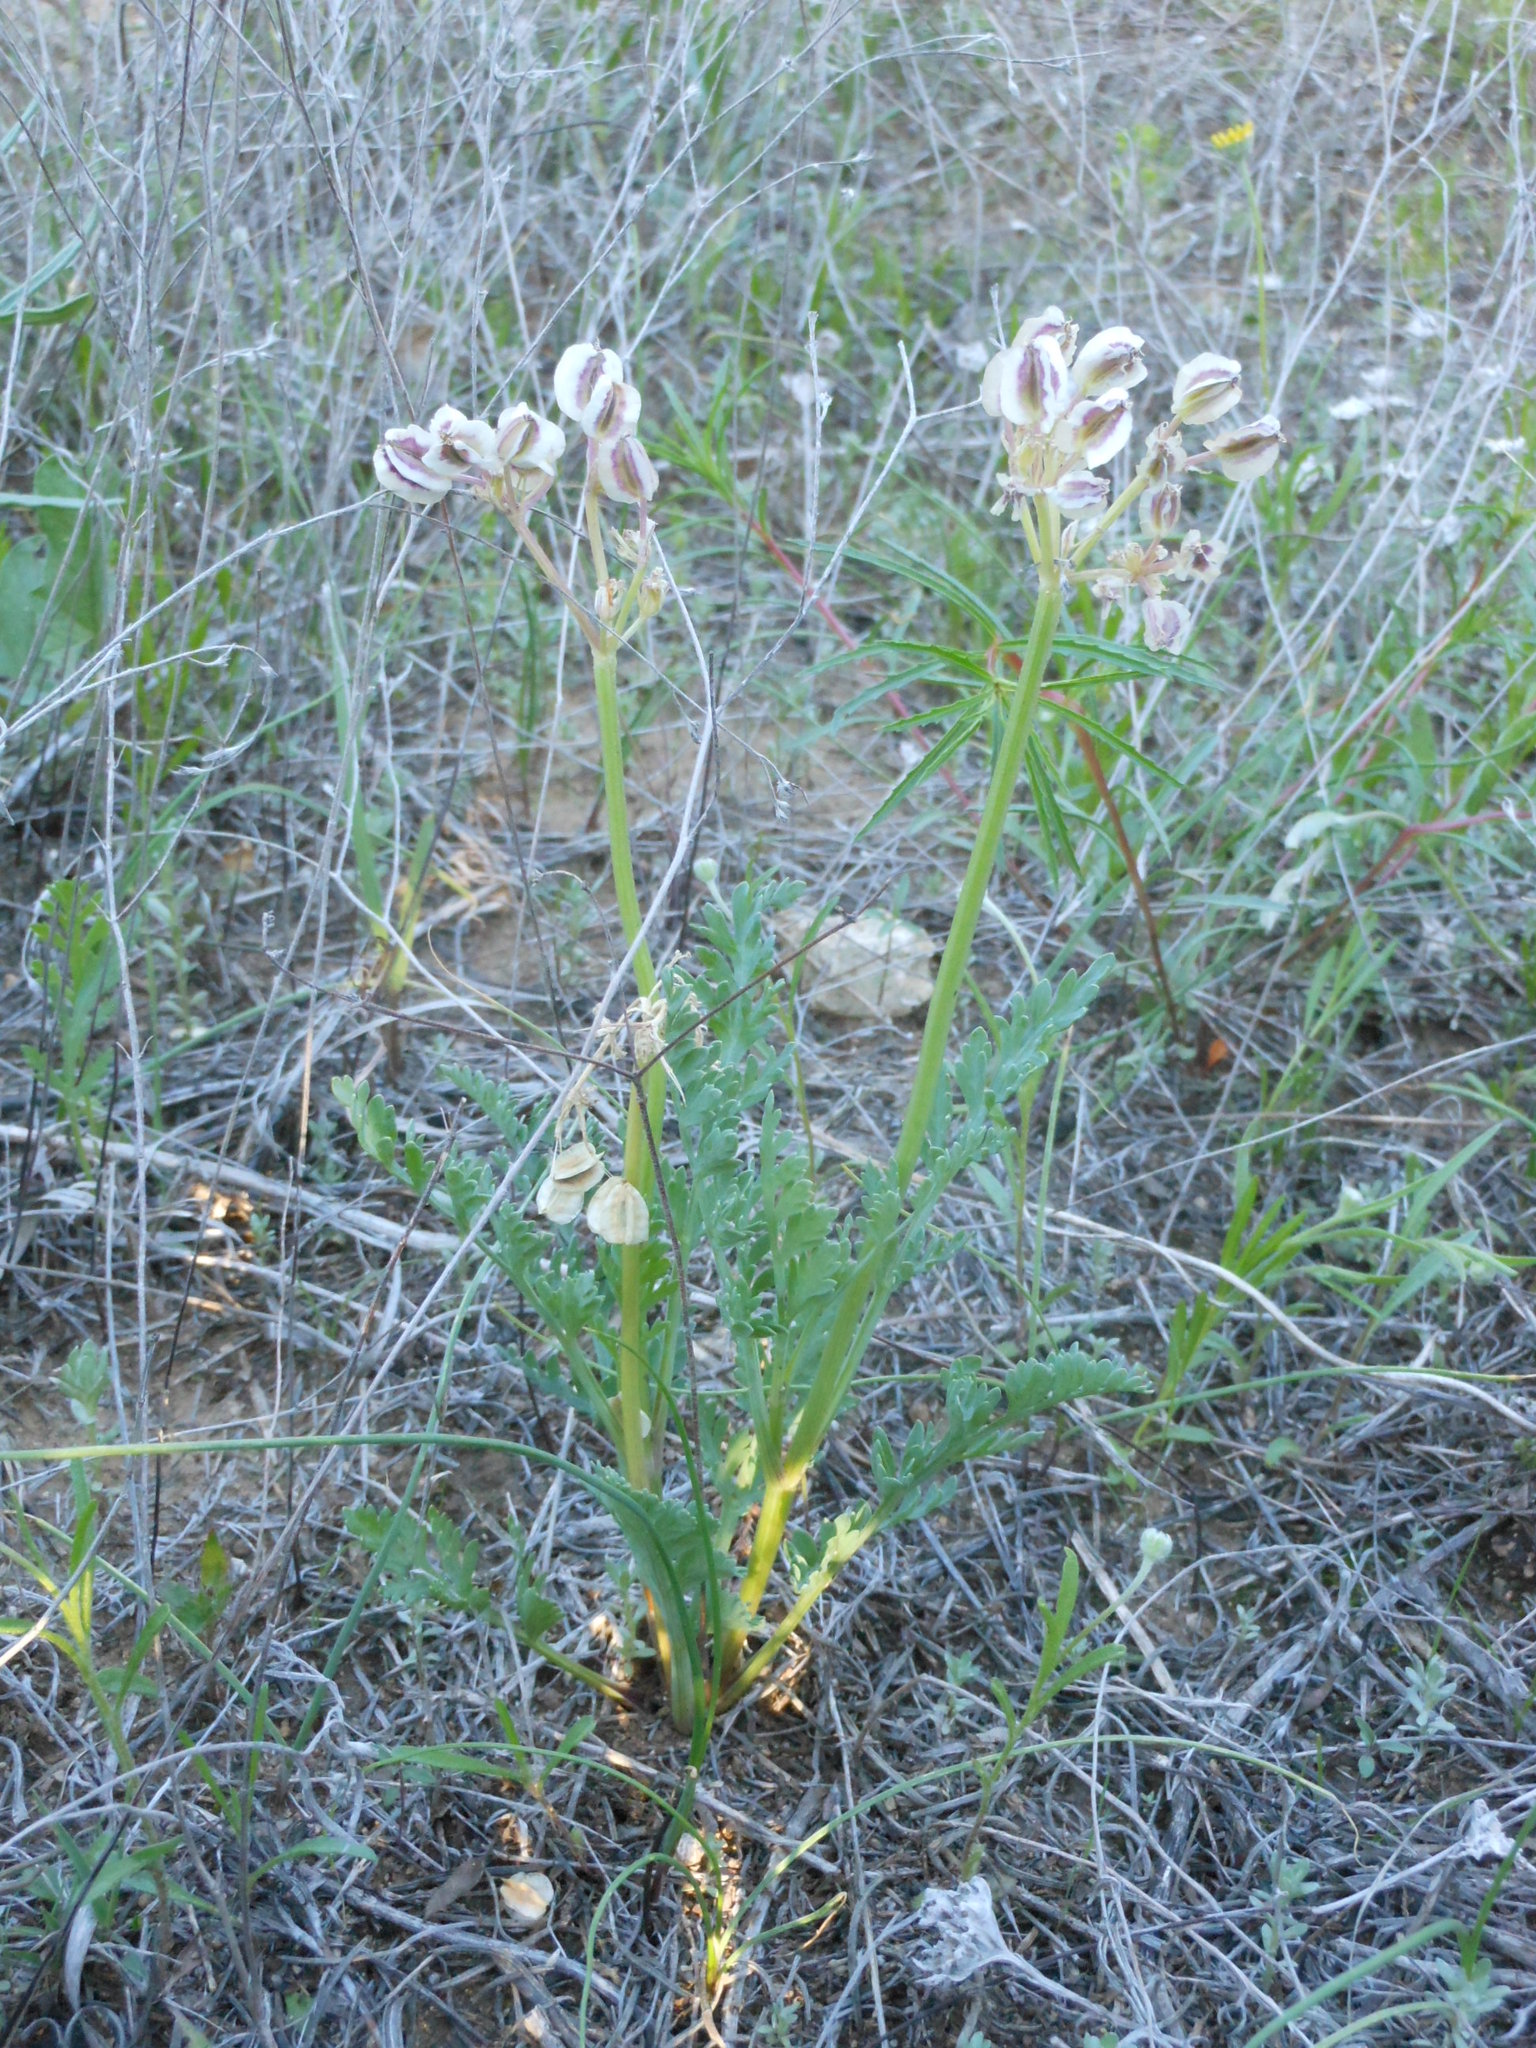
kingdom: Plantae
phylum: Tracheophyta
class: Magnoliopsida
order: Apiales
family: Apiaceae
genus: Vesper
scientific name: Vesper macrorhizus
